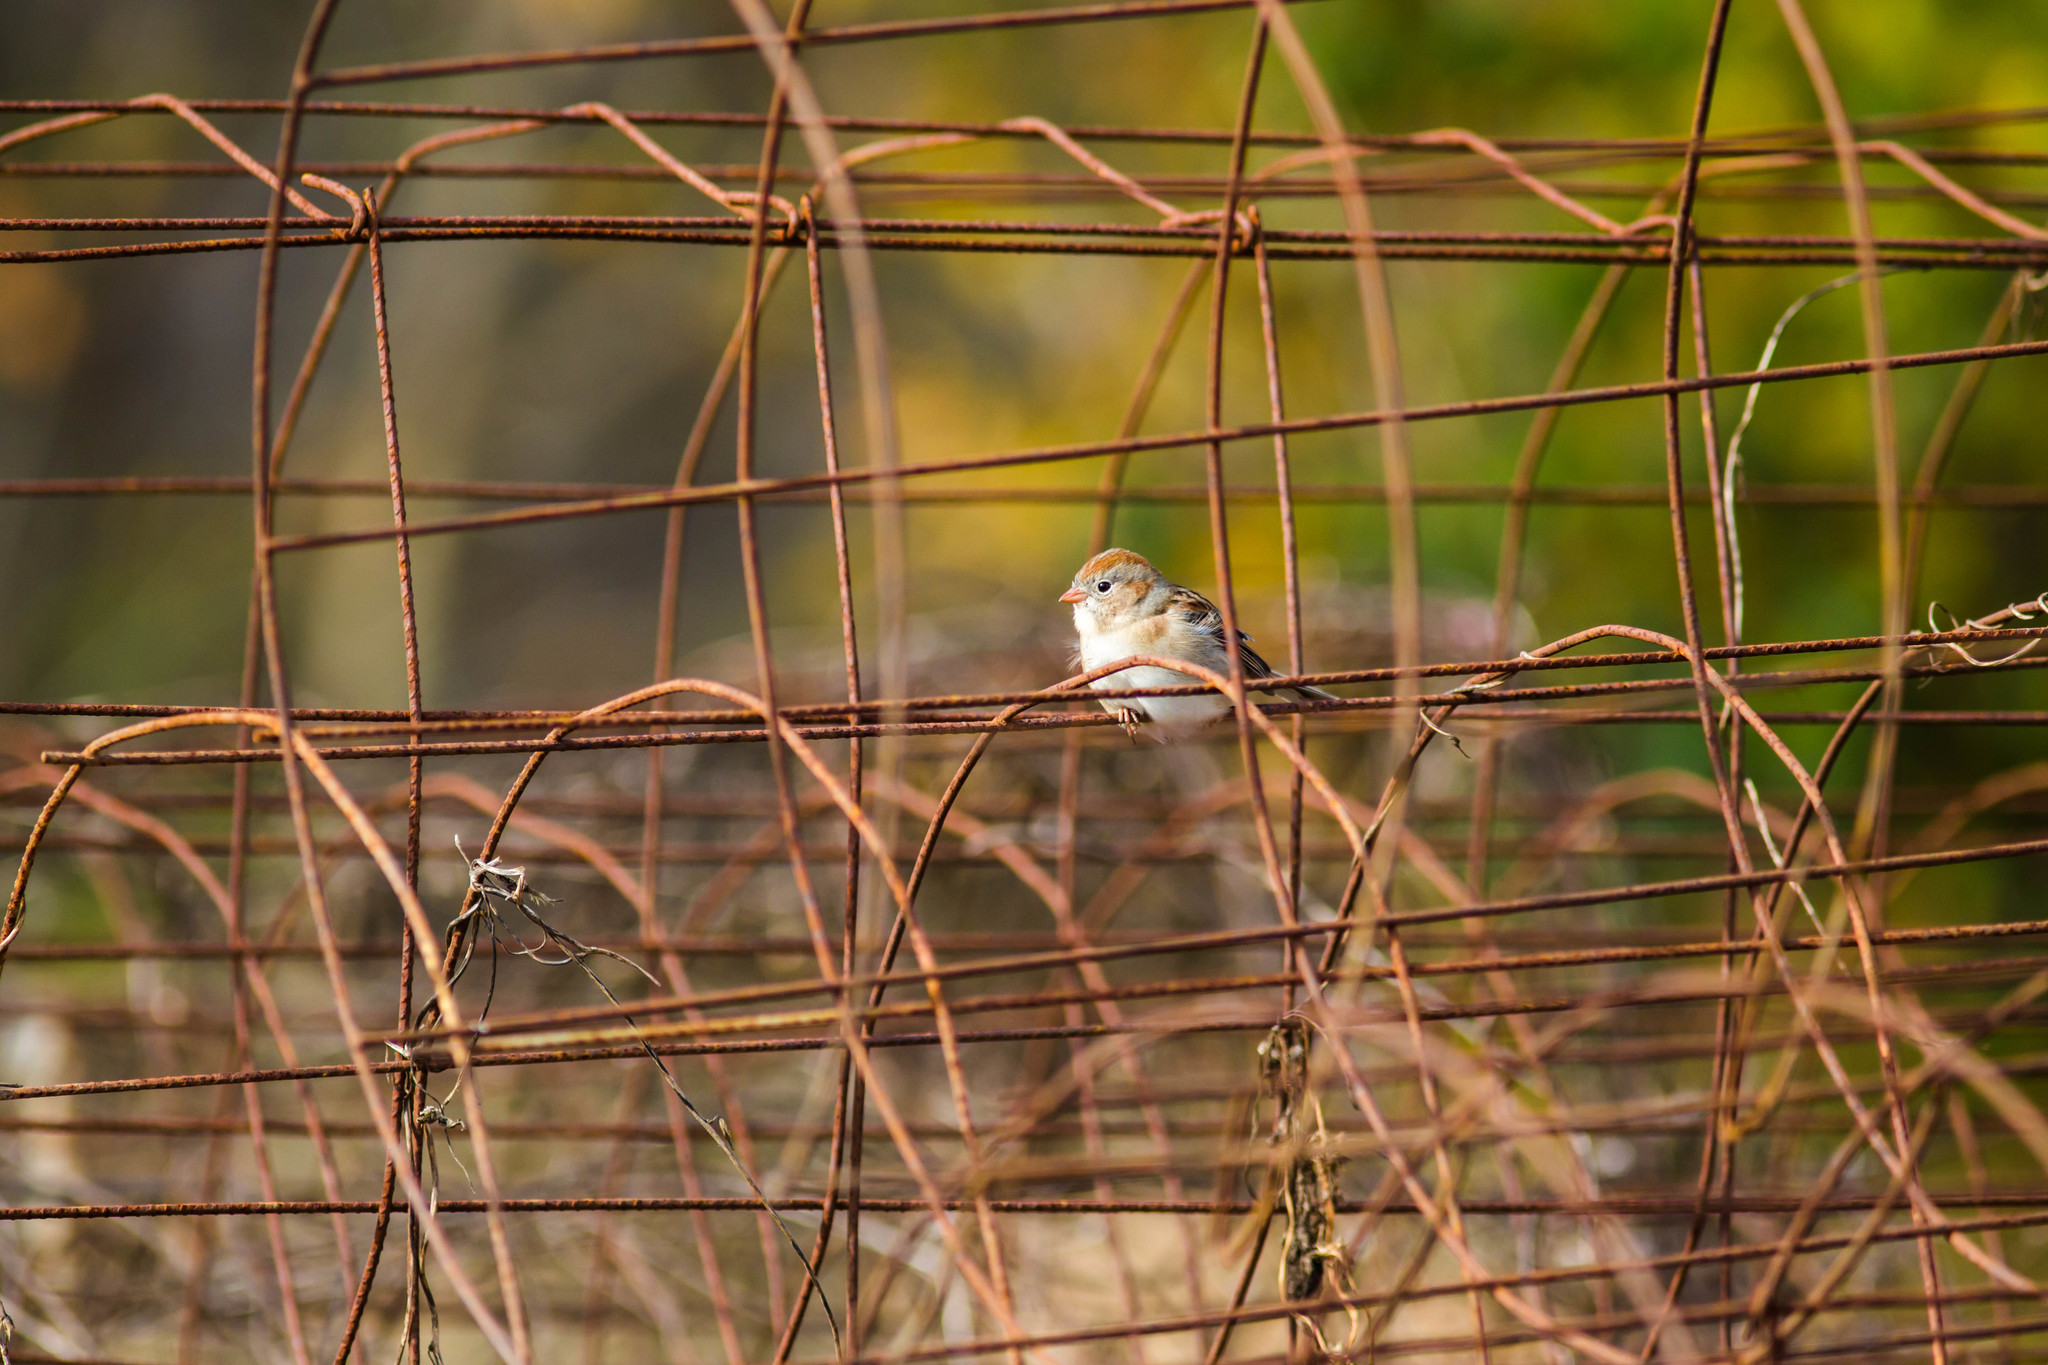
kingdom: Animalia
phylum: Chordata
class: Aves
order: Passeriformes
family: Passerellidae
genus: Spizella
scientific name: Spizella pusilla
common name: Field sparrow
